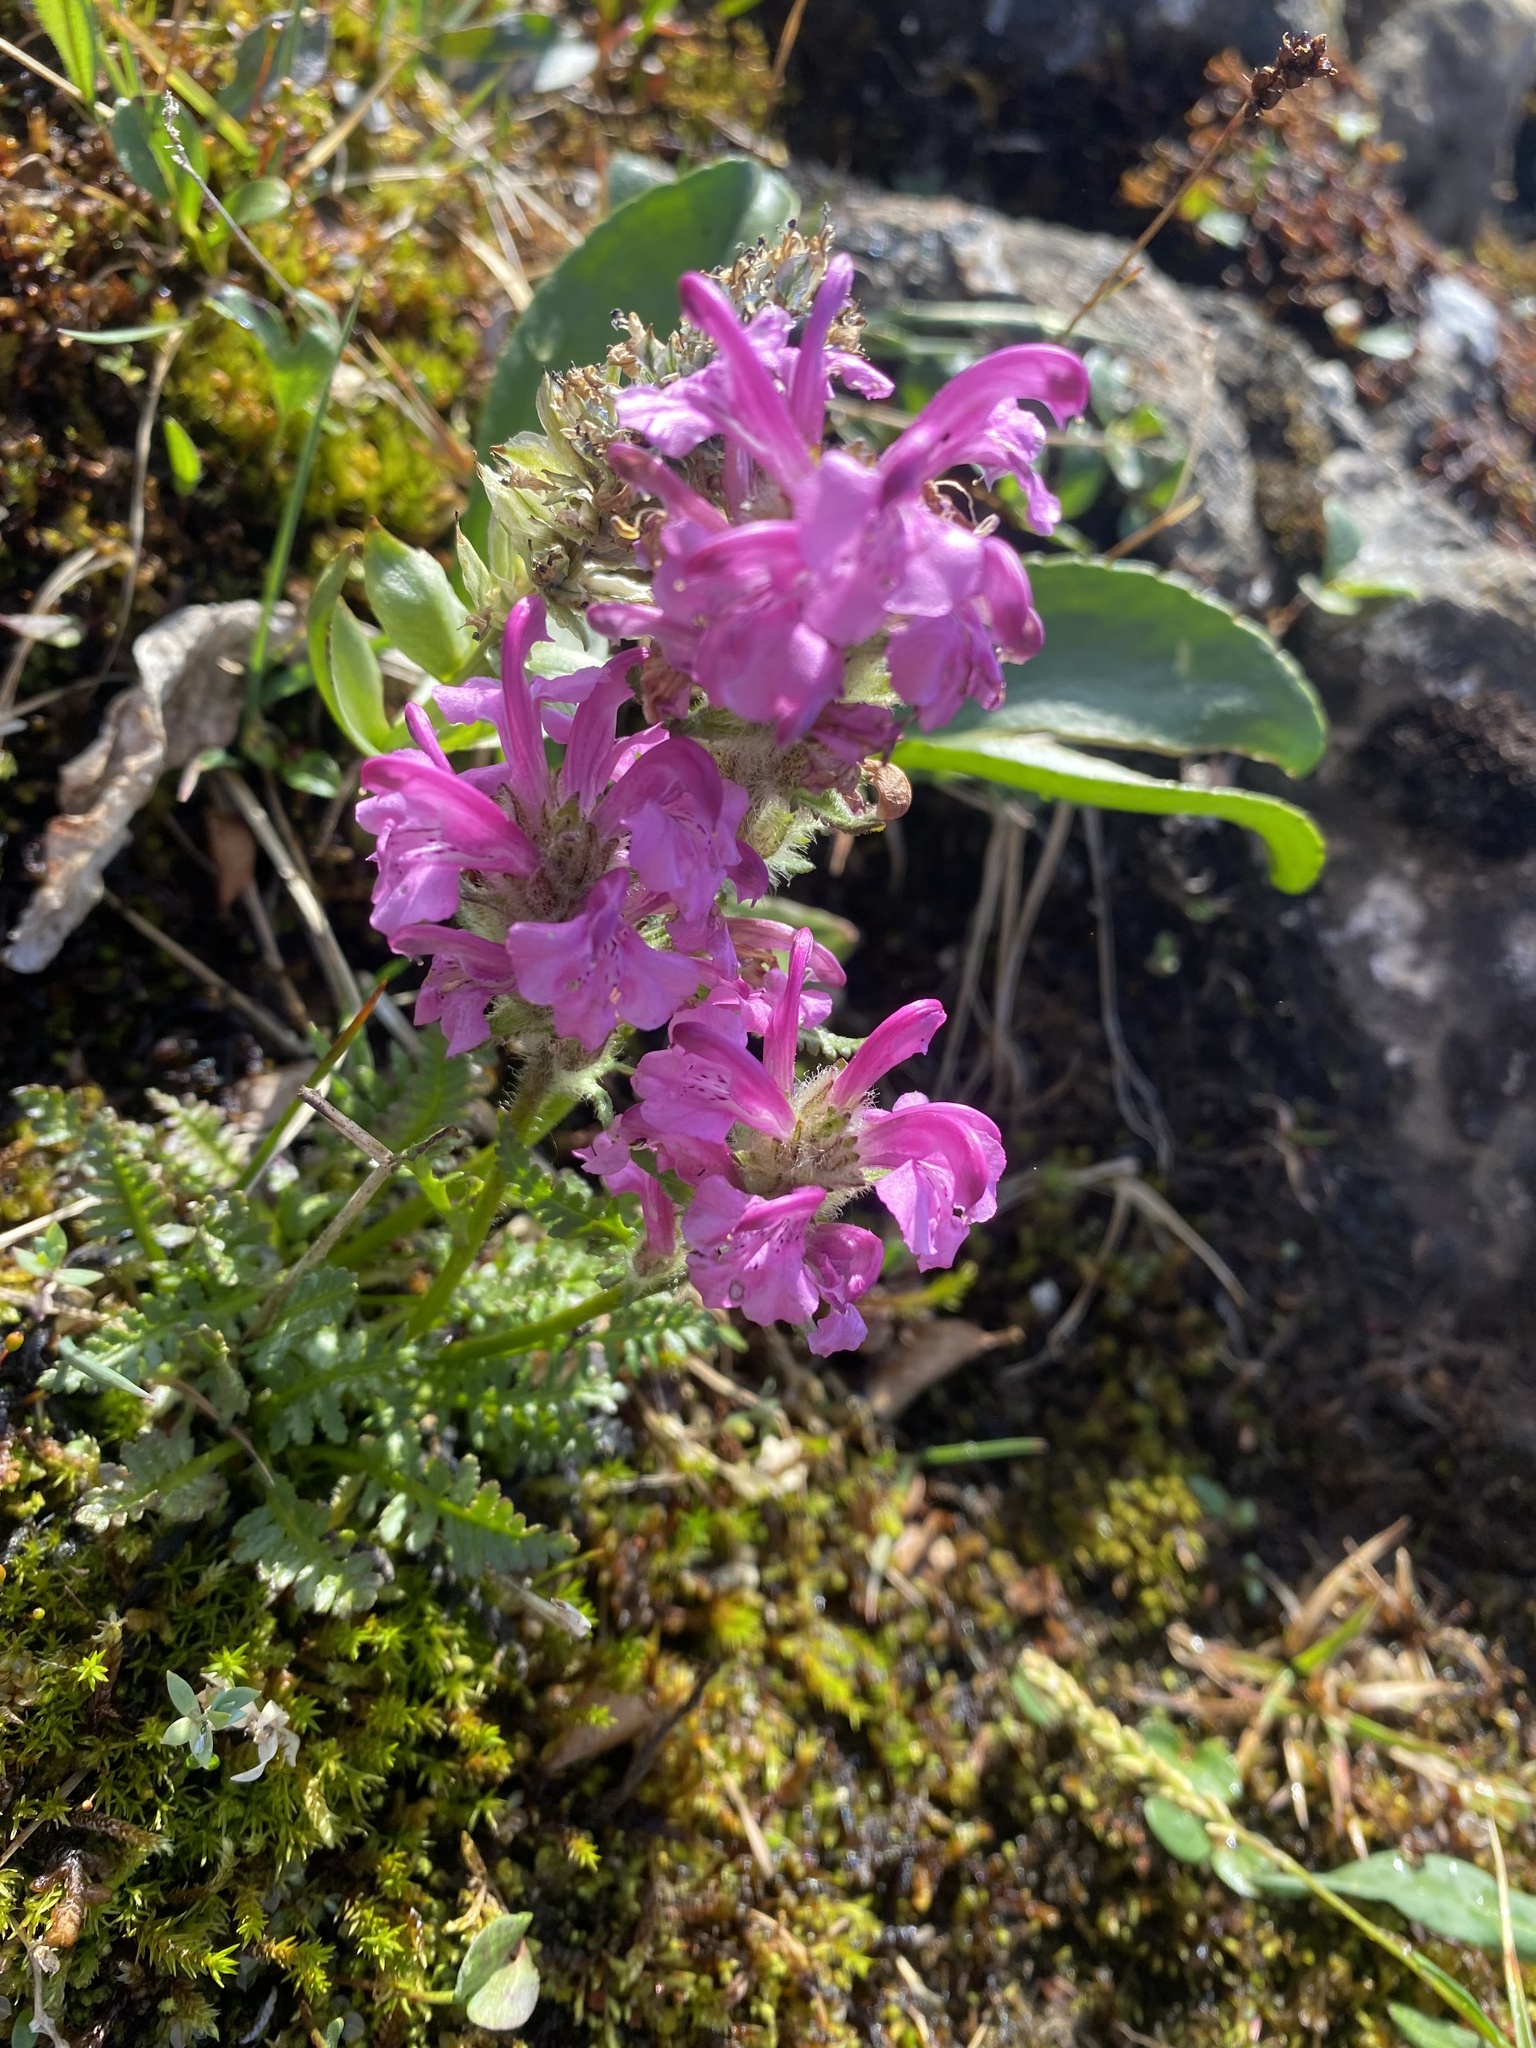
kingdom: Plantae
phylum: Tracheophyta
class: Magnoliopsida
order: Lamiales
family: Orobanchaceae
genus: Pedicularis
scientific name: Pedicularis interior
